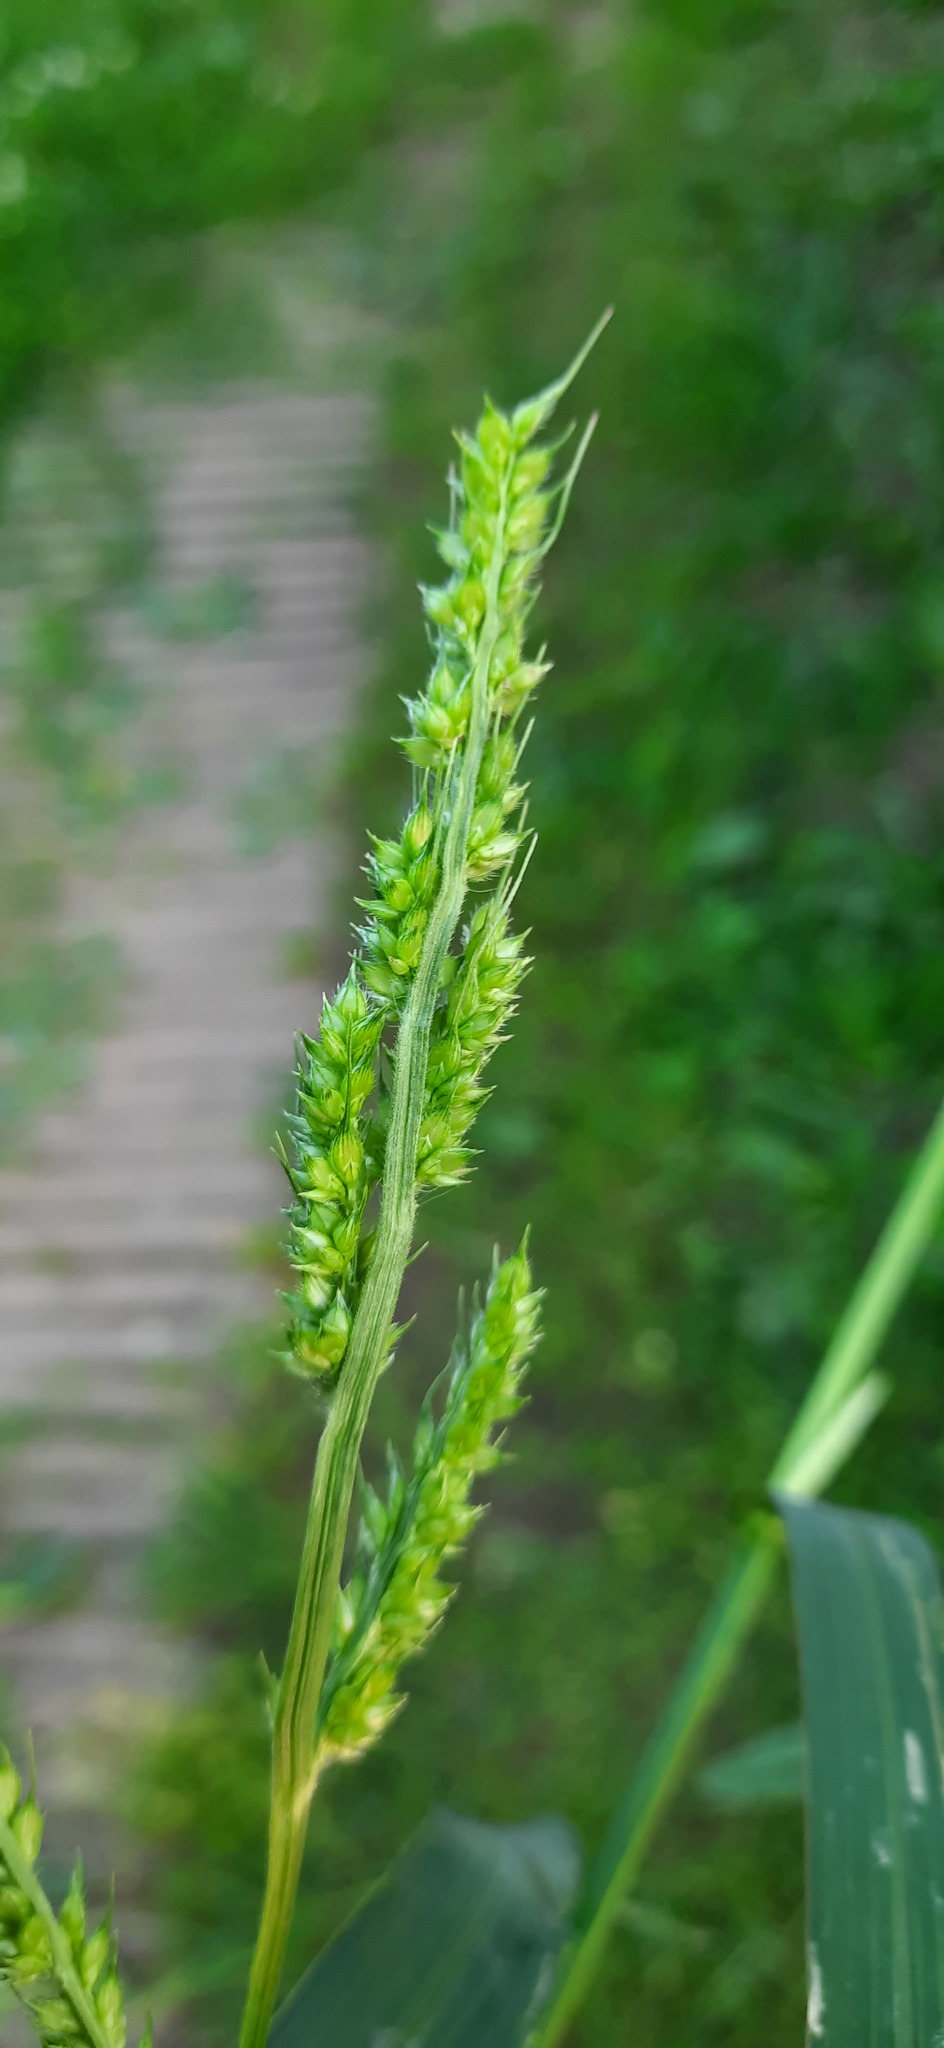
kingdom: Plantae
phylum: Tracheophyta
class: Liliopsida
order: Poales
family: Poaceae
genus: Echinochloa
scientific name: Echinochloa crus-galli
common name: Cockspur
